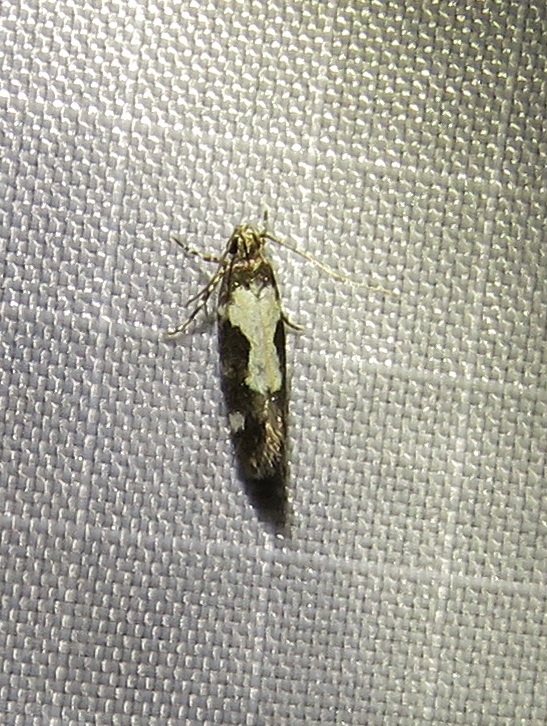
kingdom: Animalia
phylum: Arthropoda
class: Insecta
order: Lepidoptera
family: Gelechiidae
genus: Stegasta
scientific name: Stegasta bosqueella
